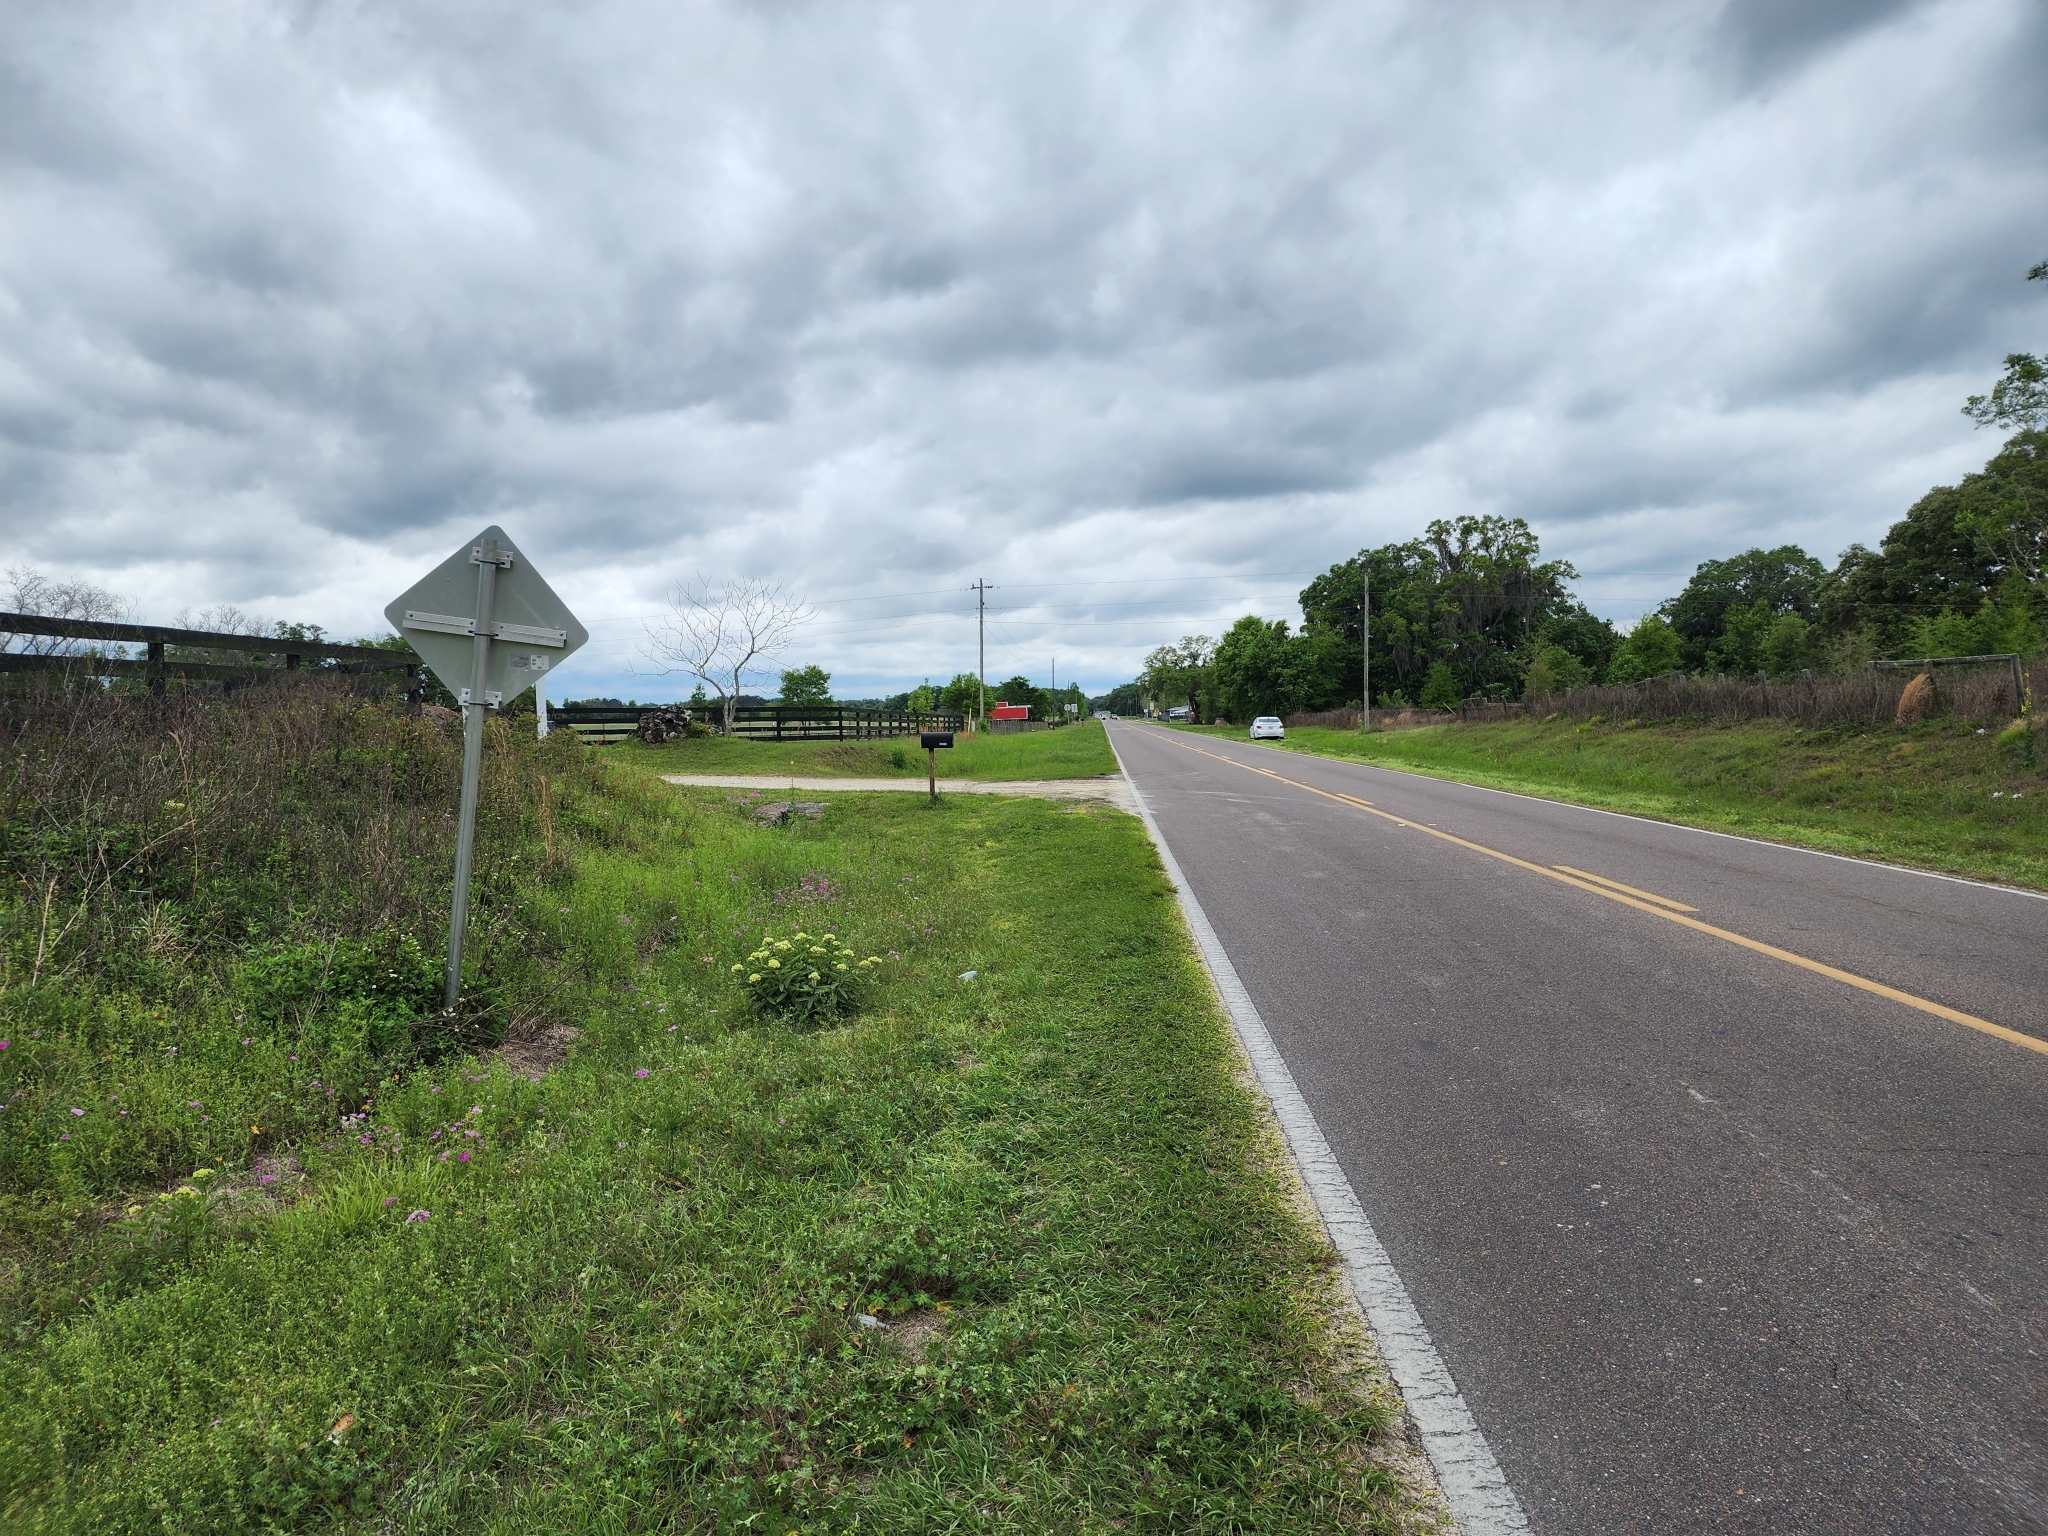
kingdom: Plantae
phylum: Tracheophyta
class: Magnoliopsida
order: Gentianales
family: Apocynaceae
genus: Asclepias
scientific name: Asclepias viridis
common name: Antelope-horns
